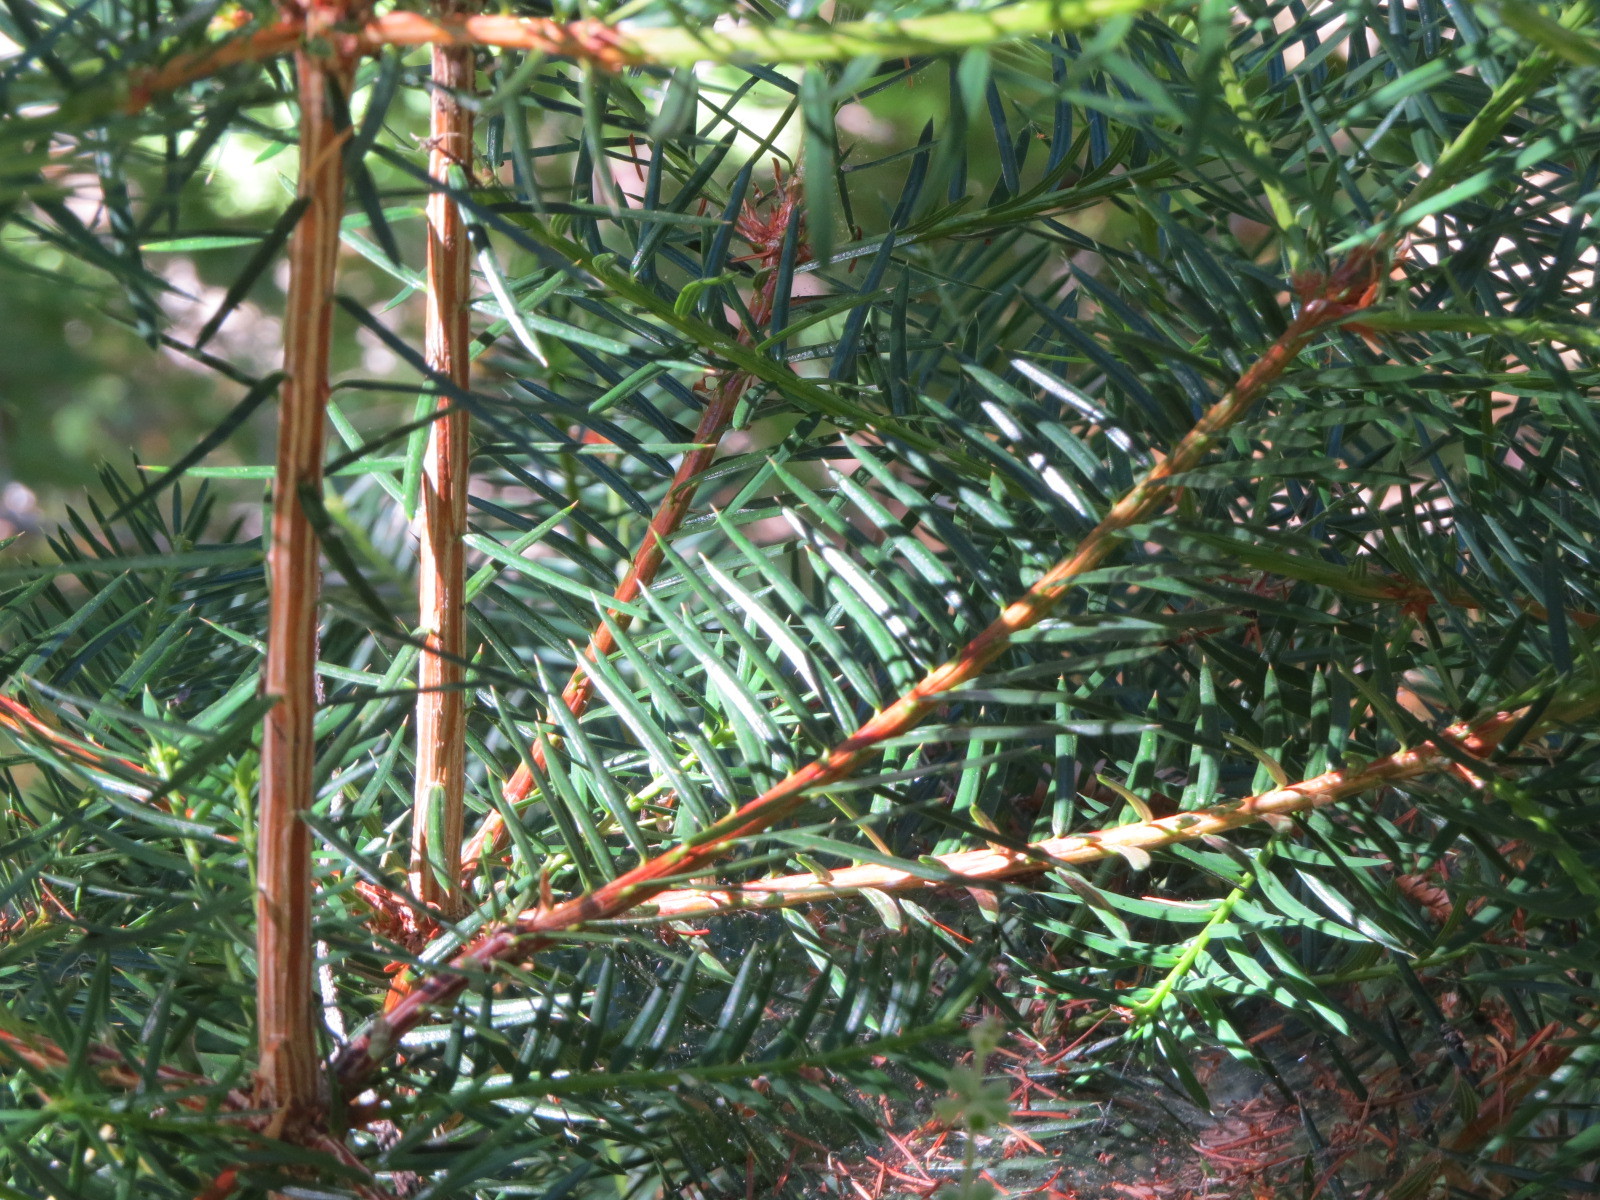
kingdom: Plantae
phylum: Tracheophyta
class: Pinopsida
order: Pinales
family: Taxaceae
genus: Torreya
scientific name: Torreya californica
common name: California torreya
